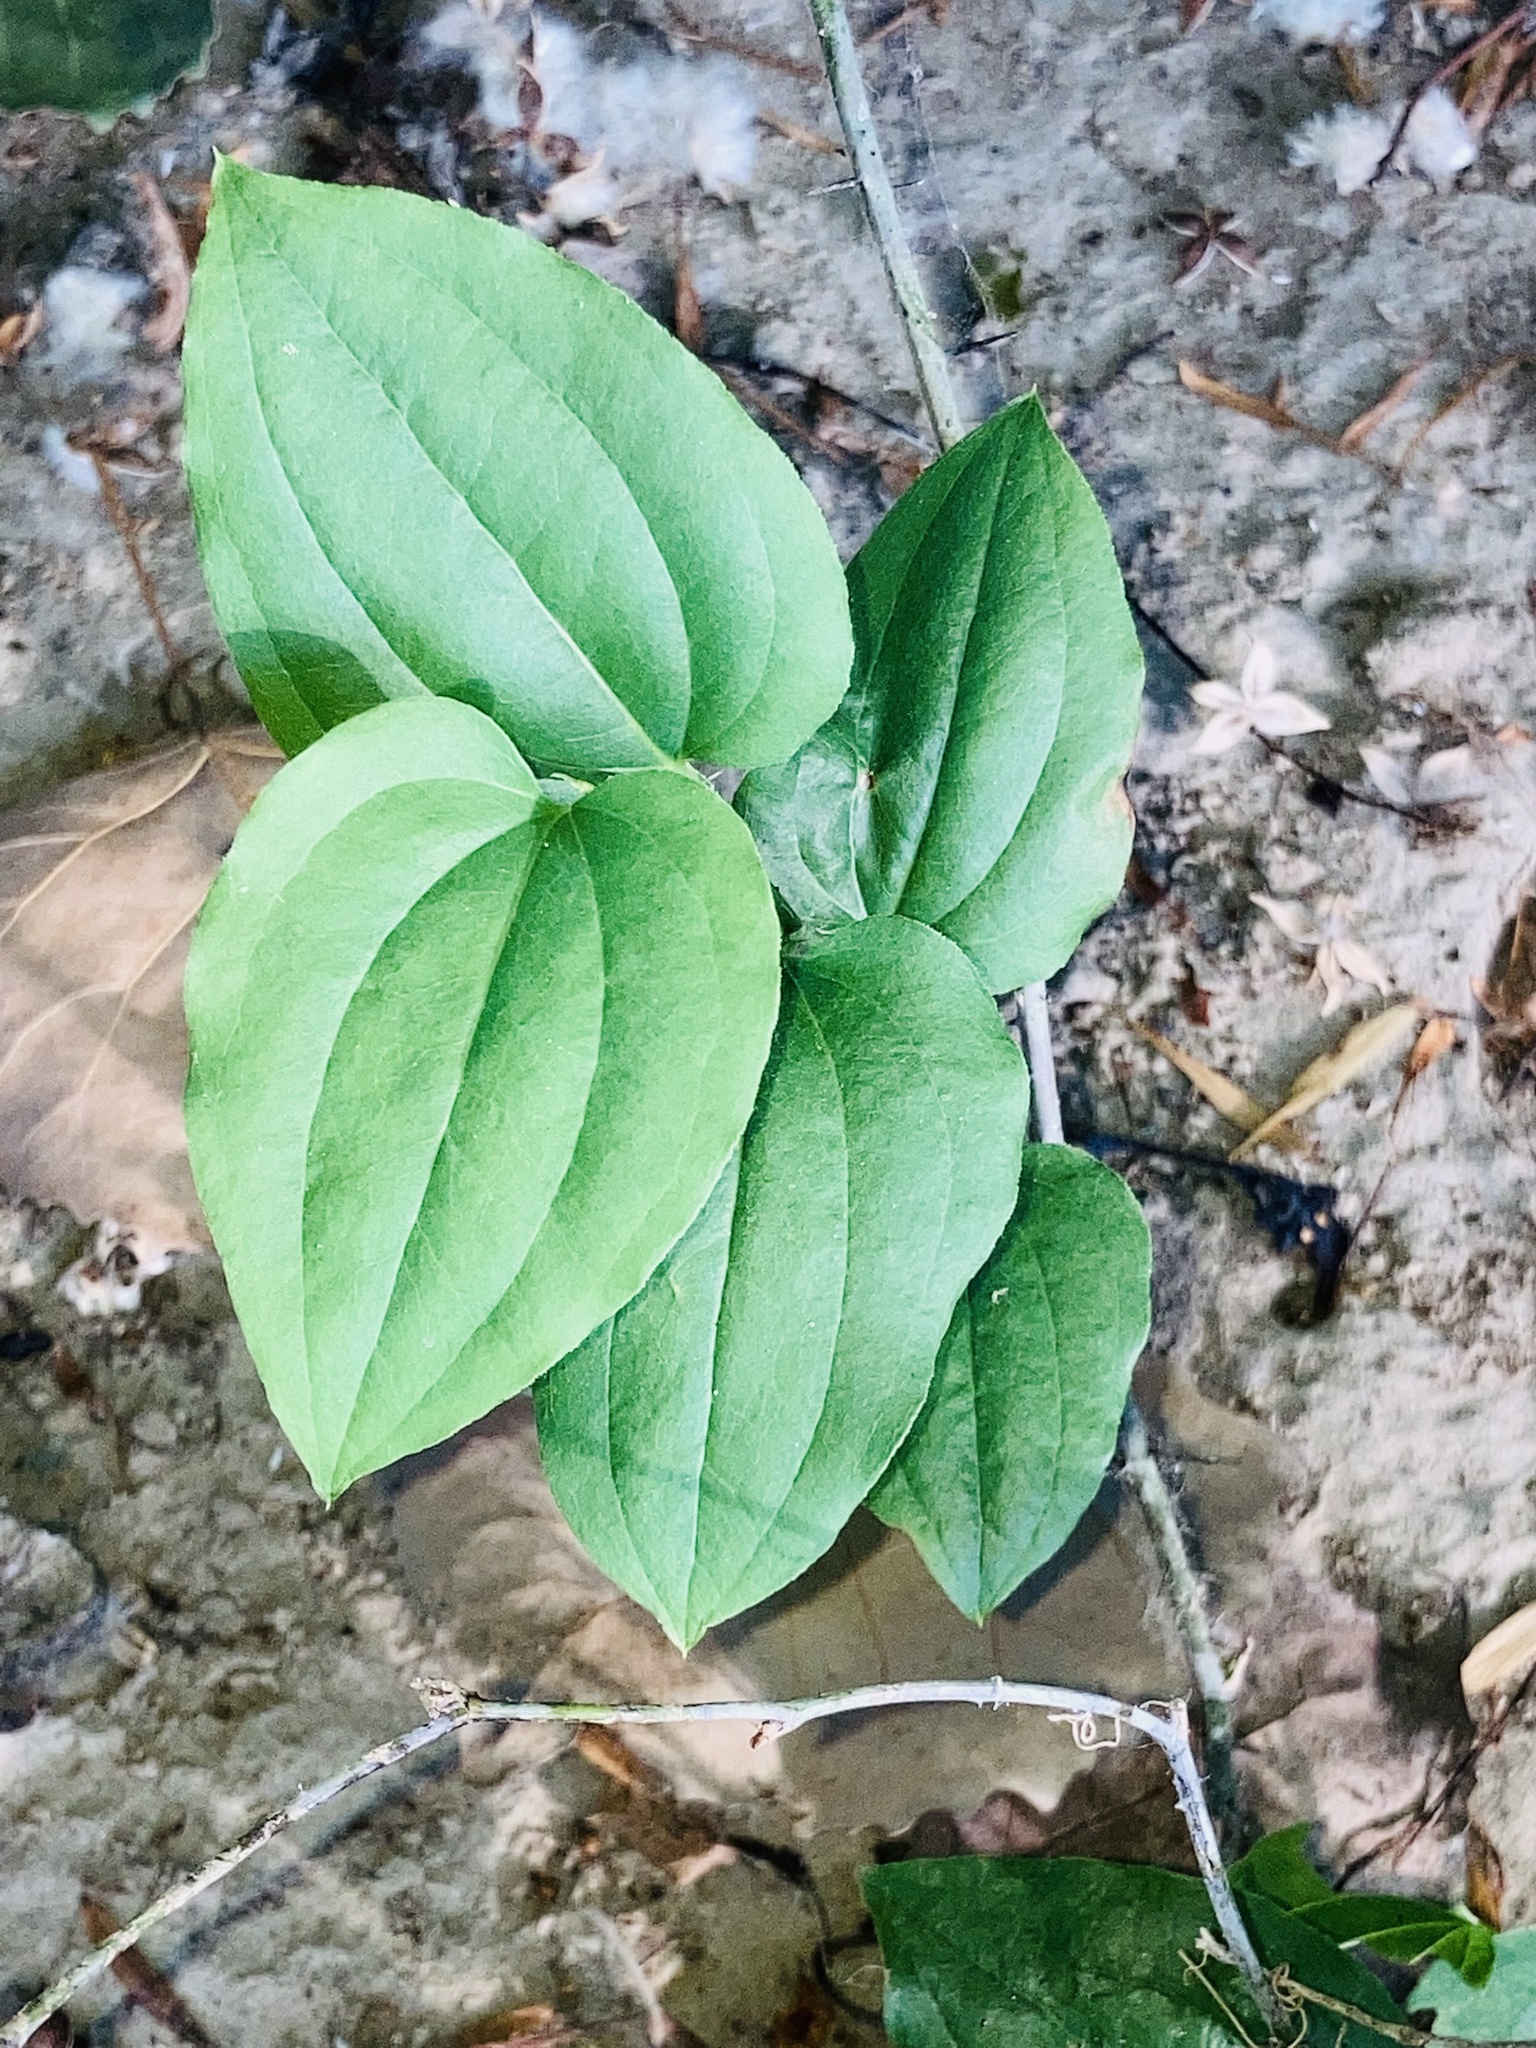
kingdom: Plantae
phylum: Tracheophyta
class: Liliopsida
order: Liliales
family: Smilacaceae
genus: Smilax
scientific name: Smilax tamnoides
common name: Hellfetter
